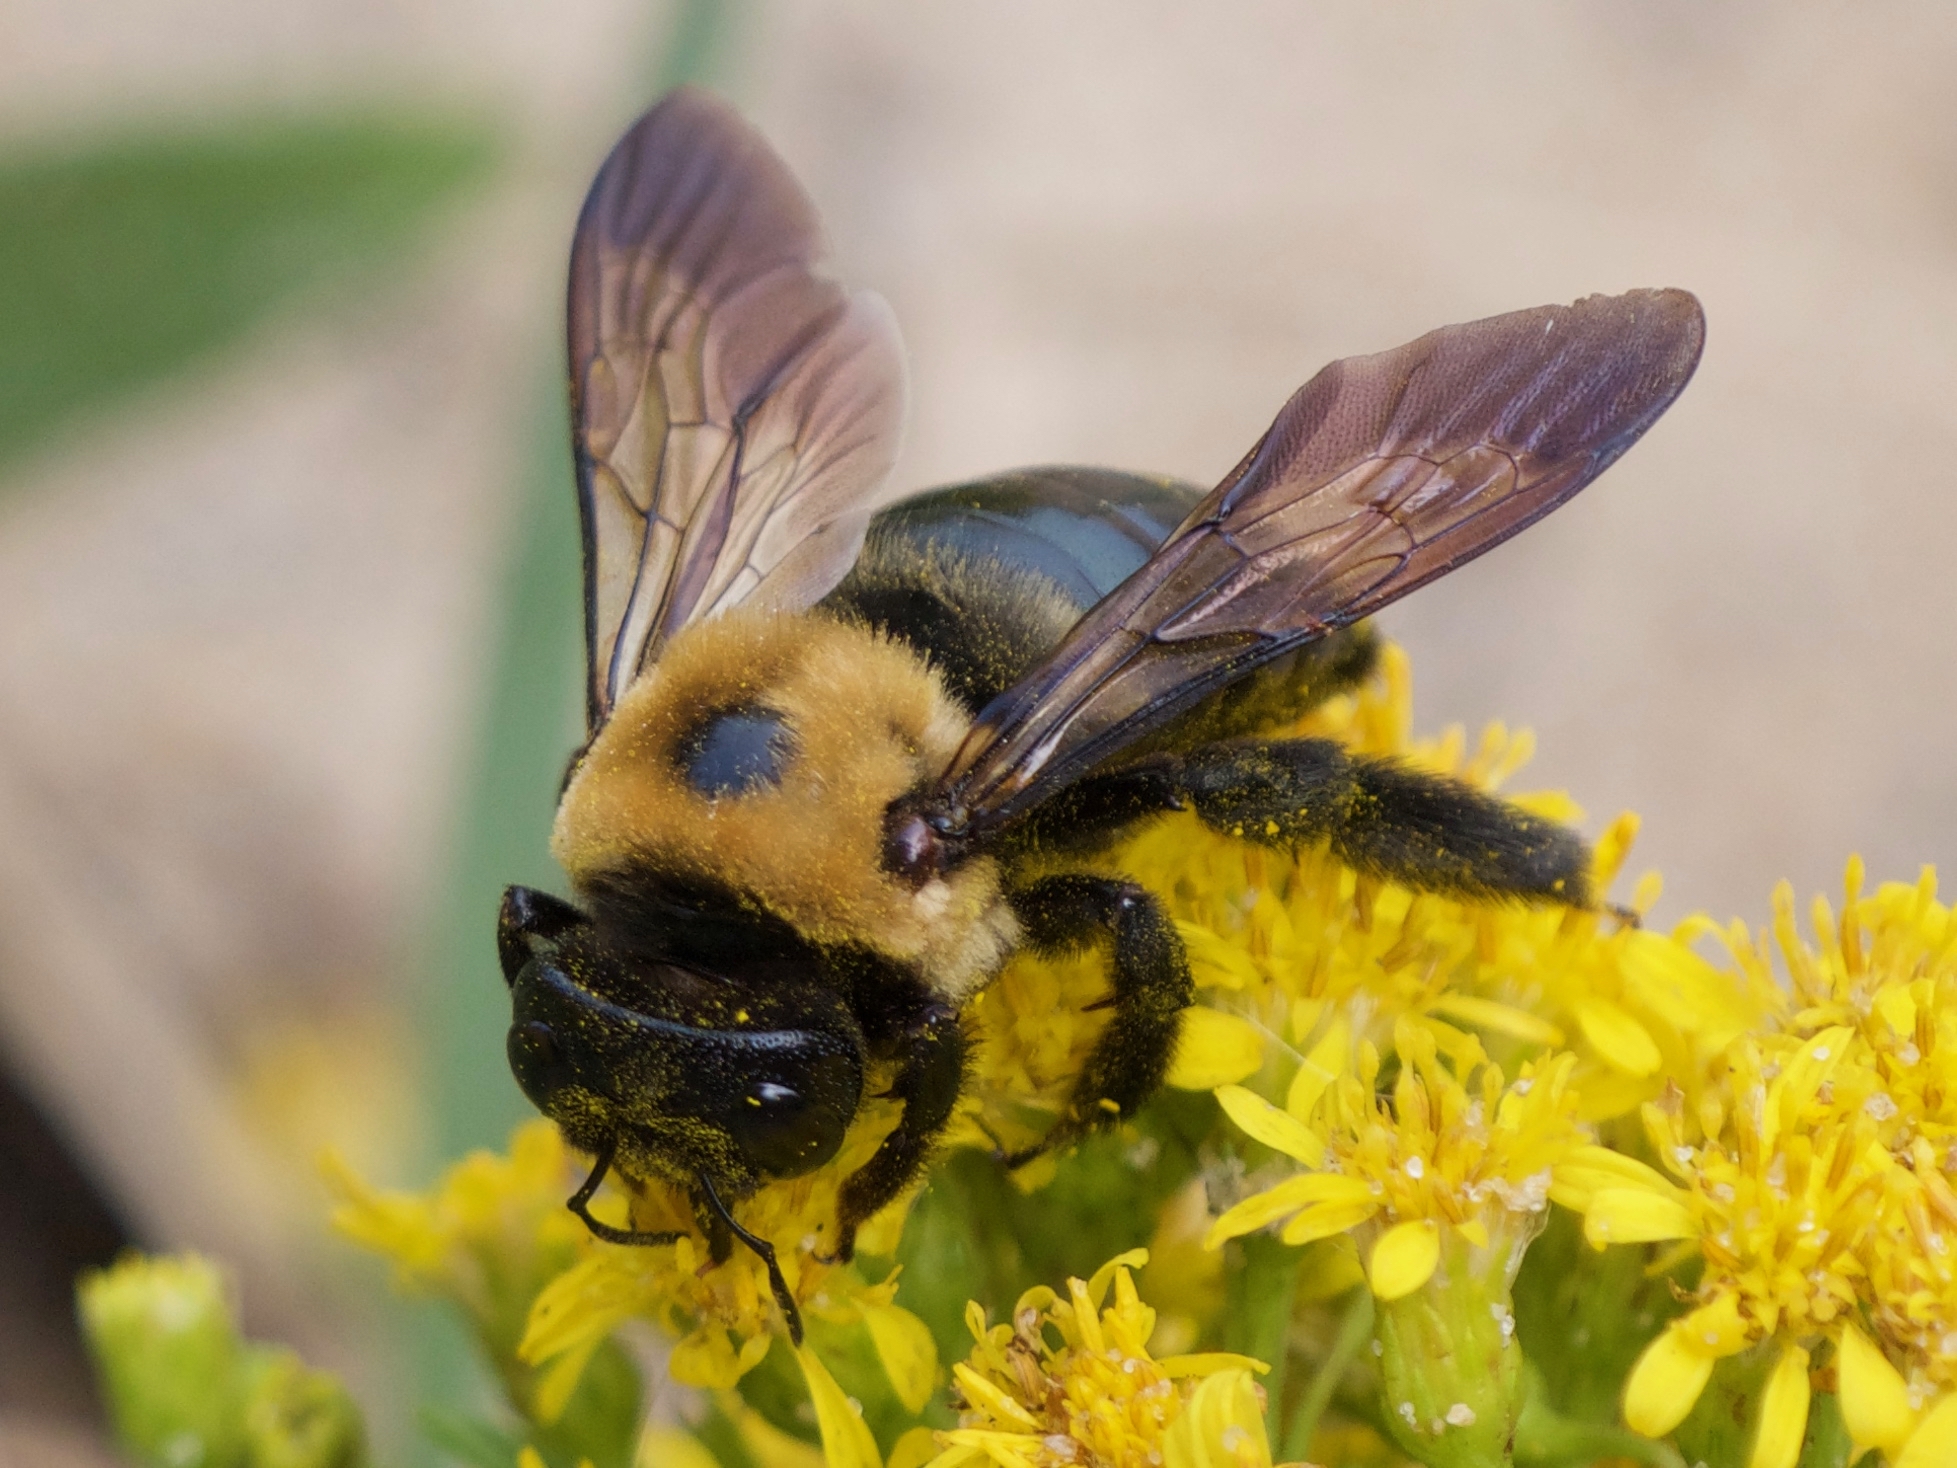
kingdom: Animalia
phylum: Arthropoda
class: Insecta
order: Hymenoptera
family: Apidae
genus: Xylocopa
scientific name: Xylocopa virginica
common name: Carpenter bee
